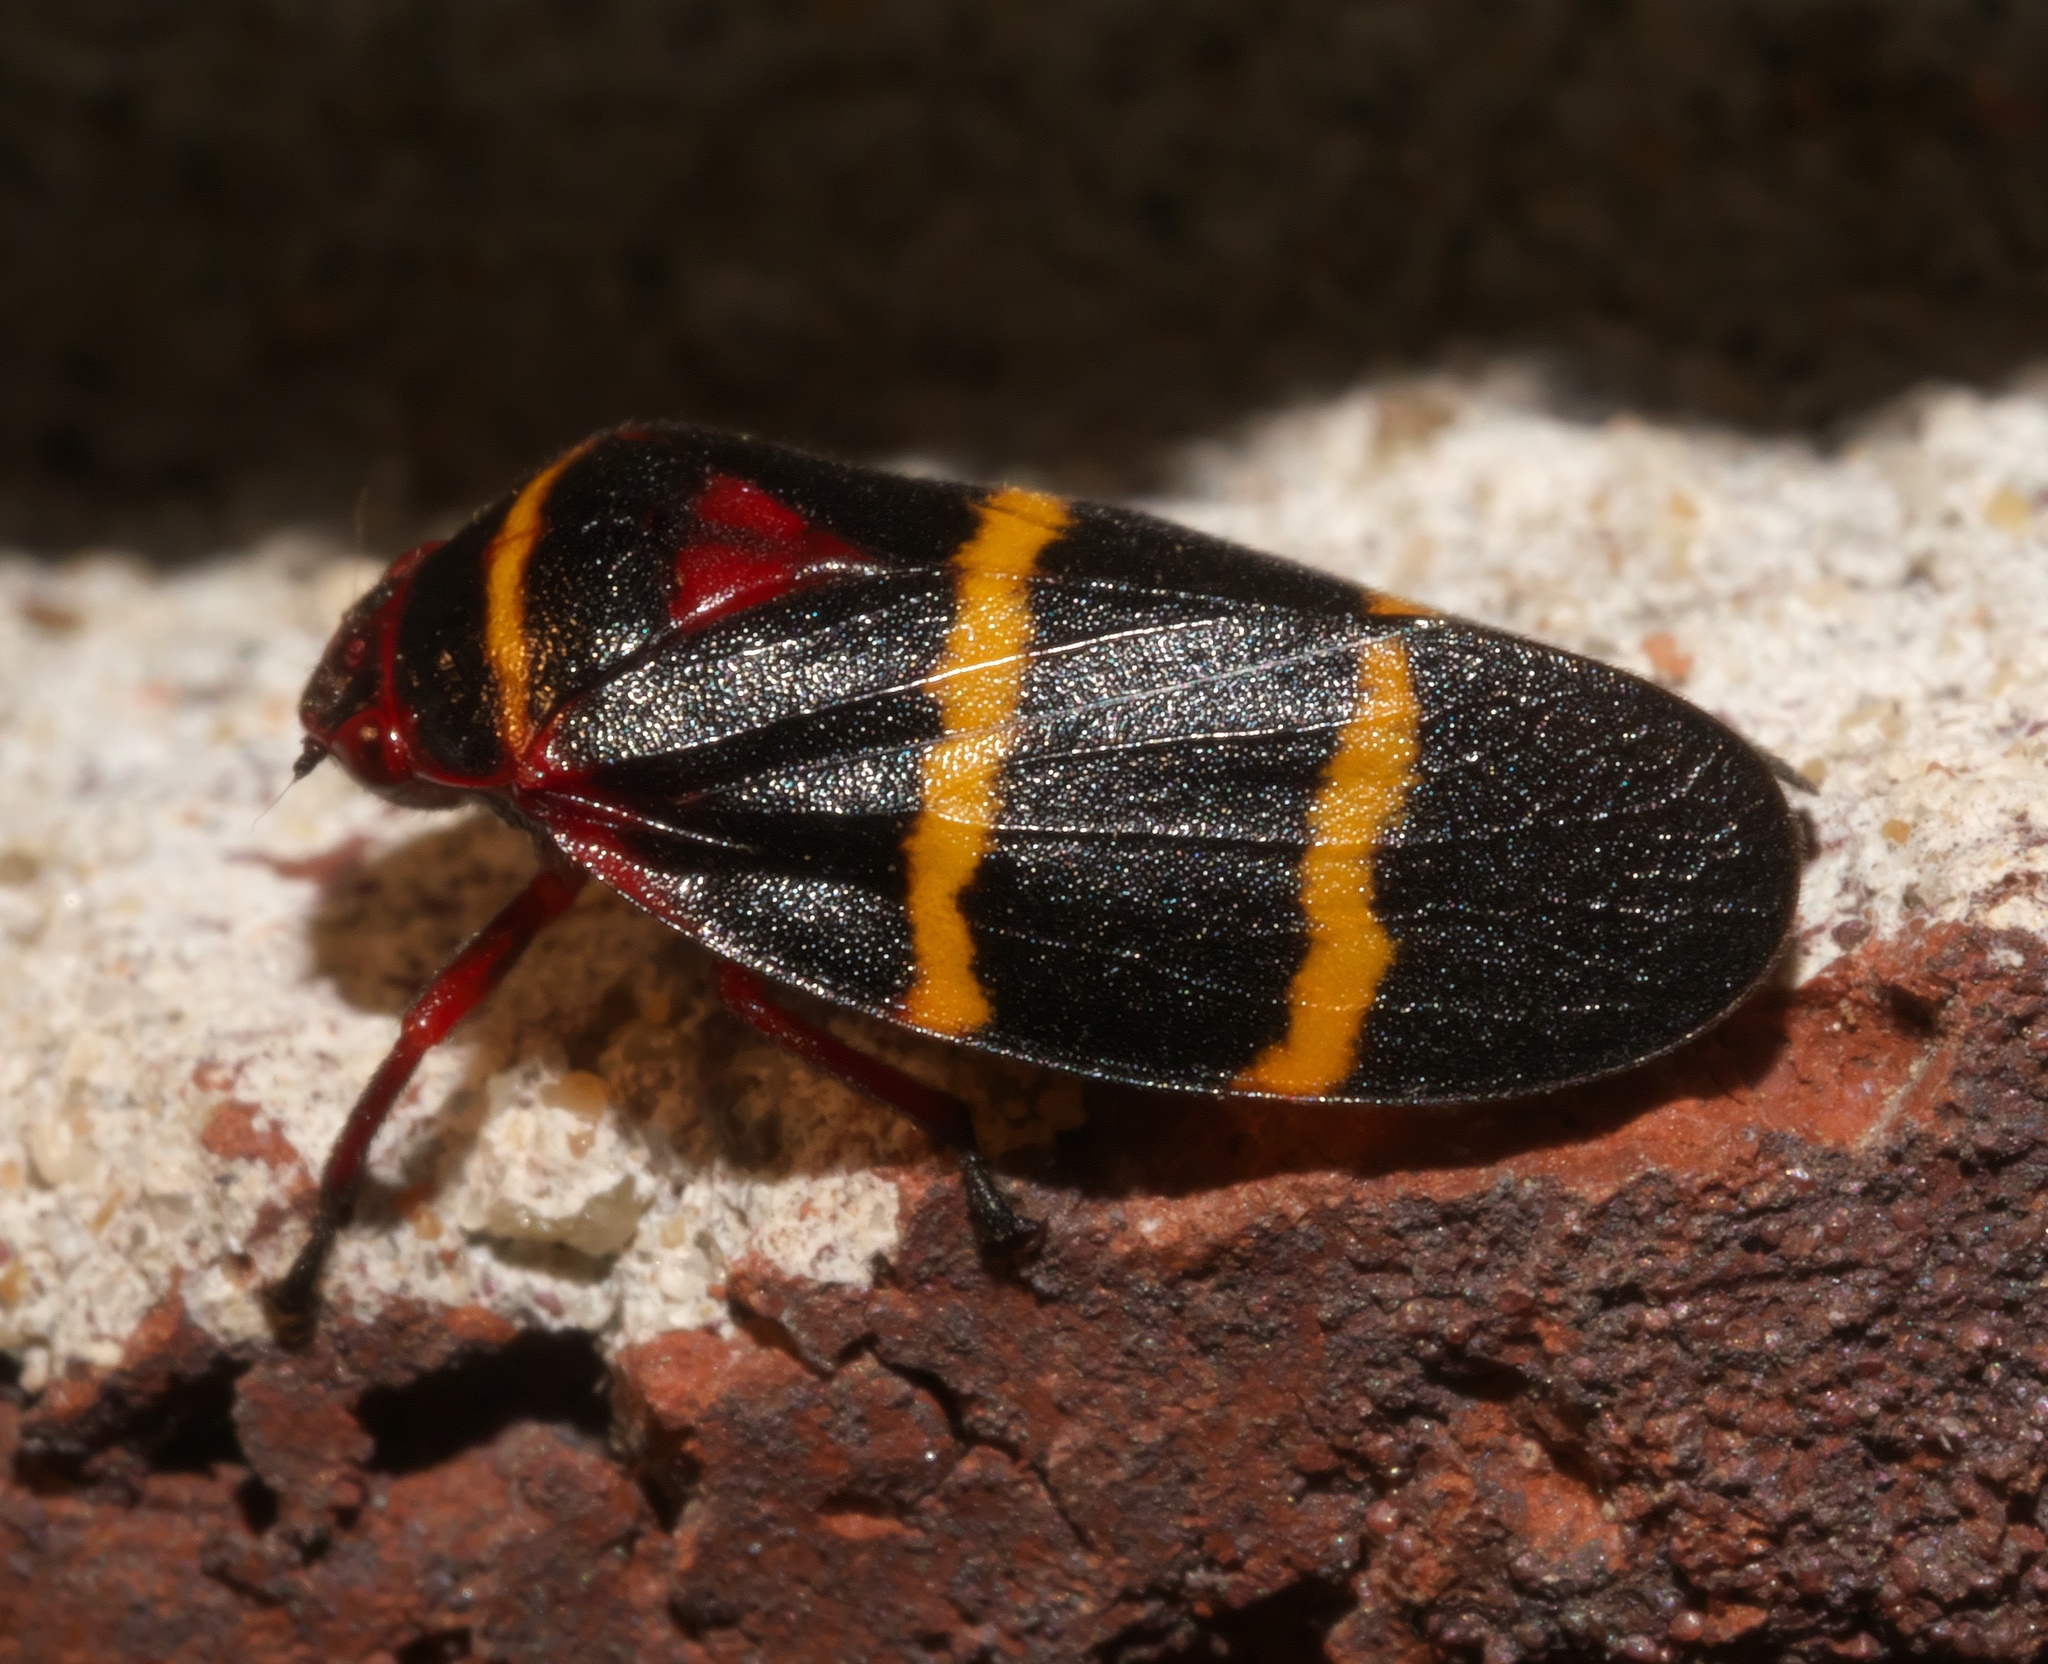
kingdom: Animalia
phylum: Arthropoda
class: Insecta
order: Hemiptera
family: Cercopidae
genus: Prosapia
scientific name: Prosapia bicincta
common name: Twolined spittlebug
